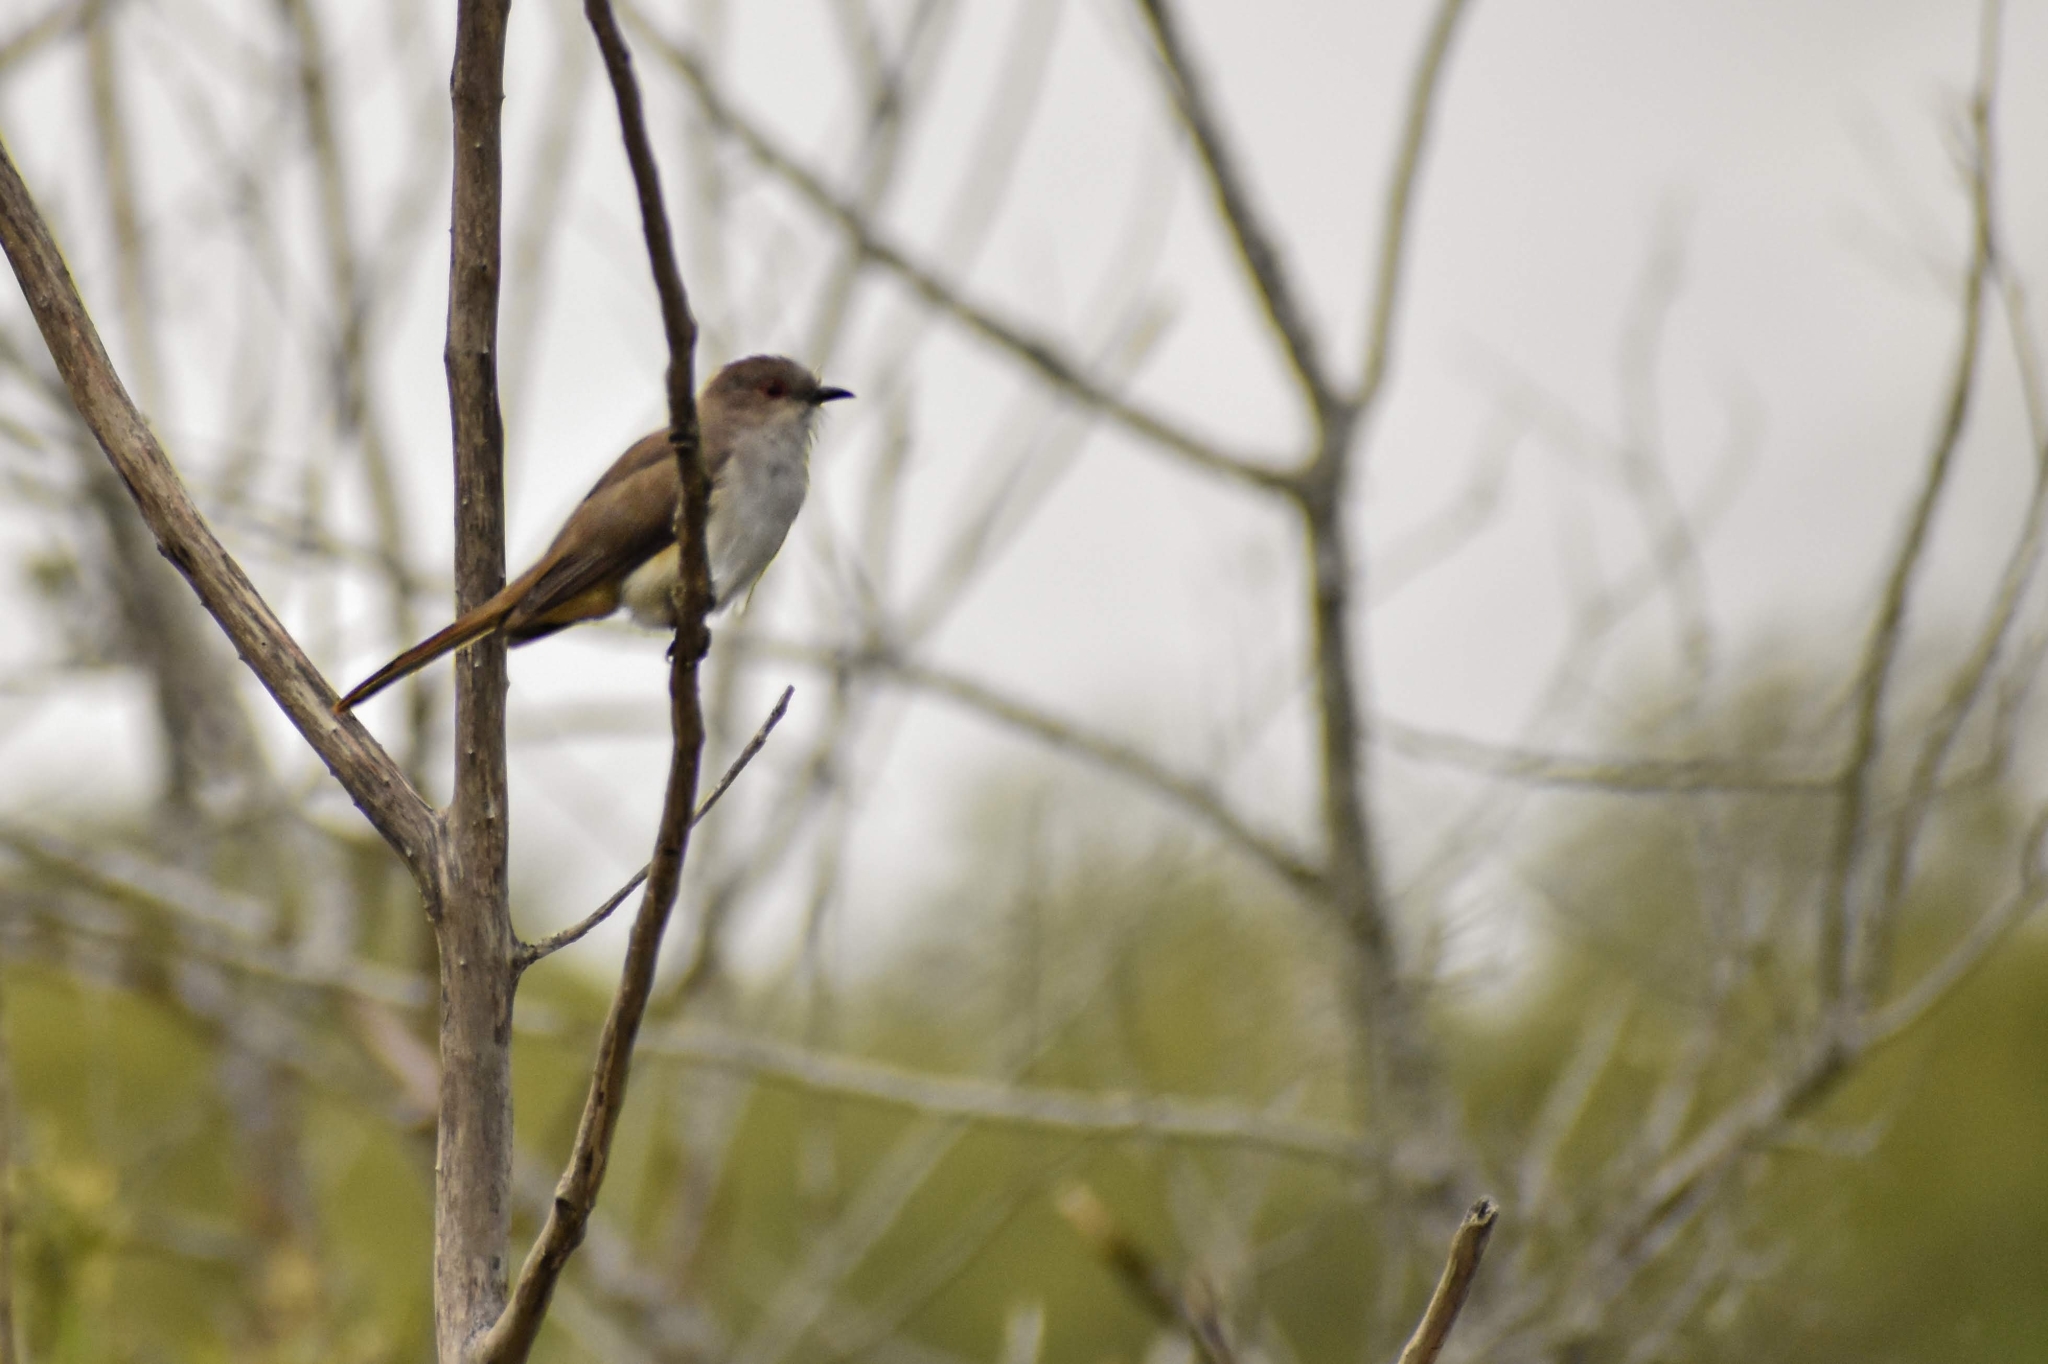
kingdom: Animalia
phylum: Chordata
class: Aves
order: Cuculiformes
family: Cuculidae
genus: Coccyzus
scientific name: Coccyzus cinereus
